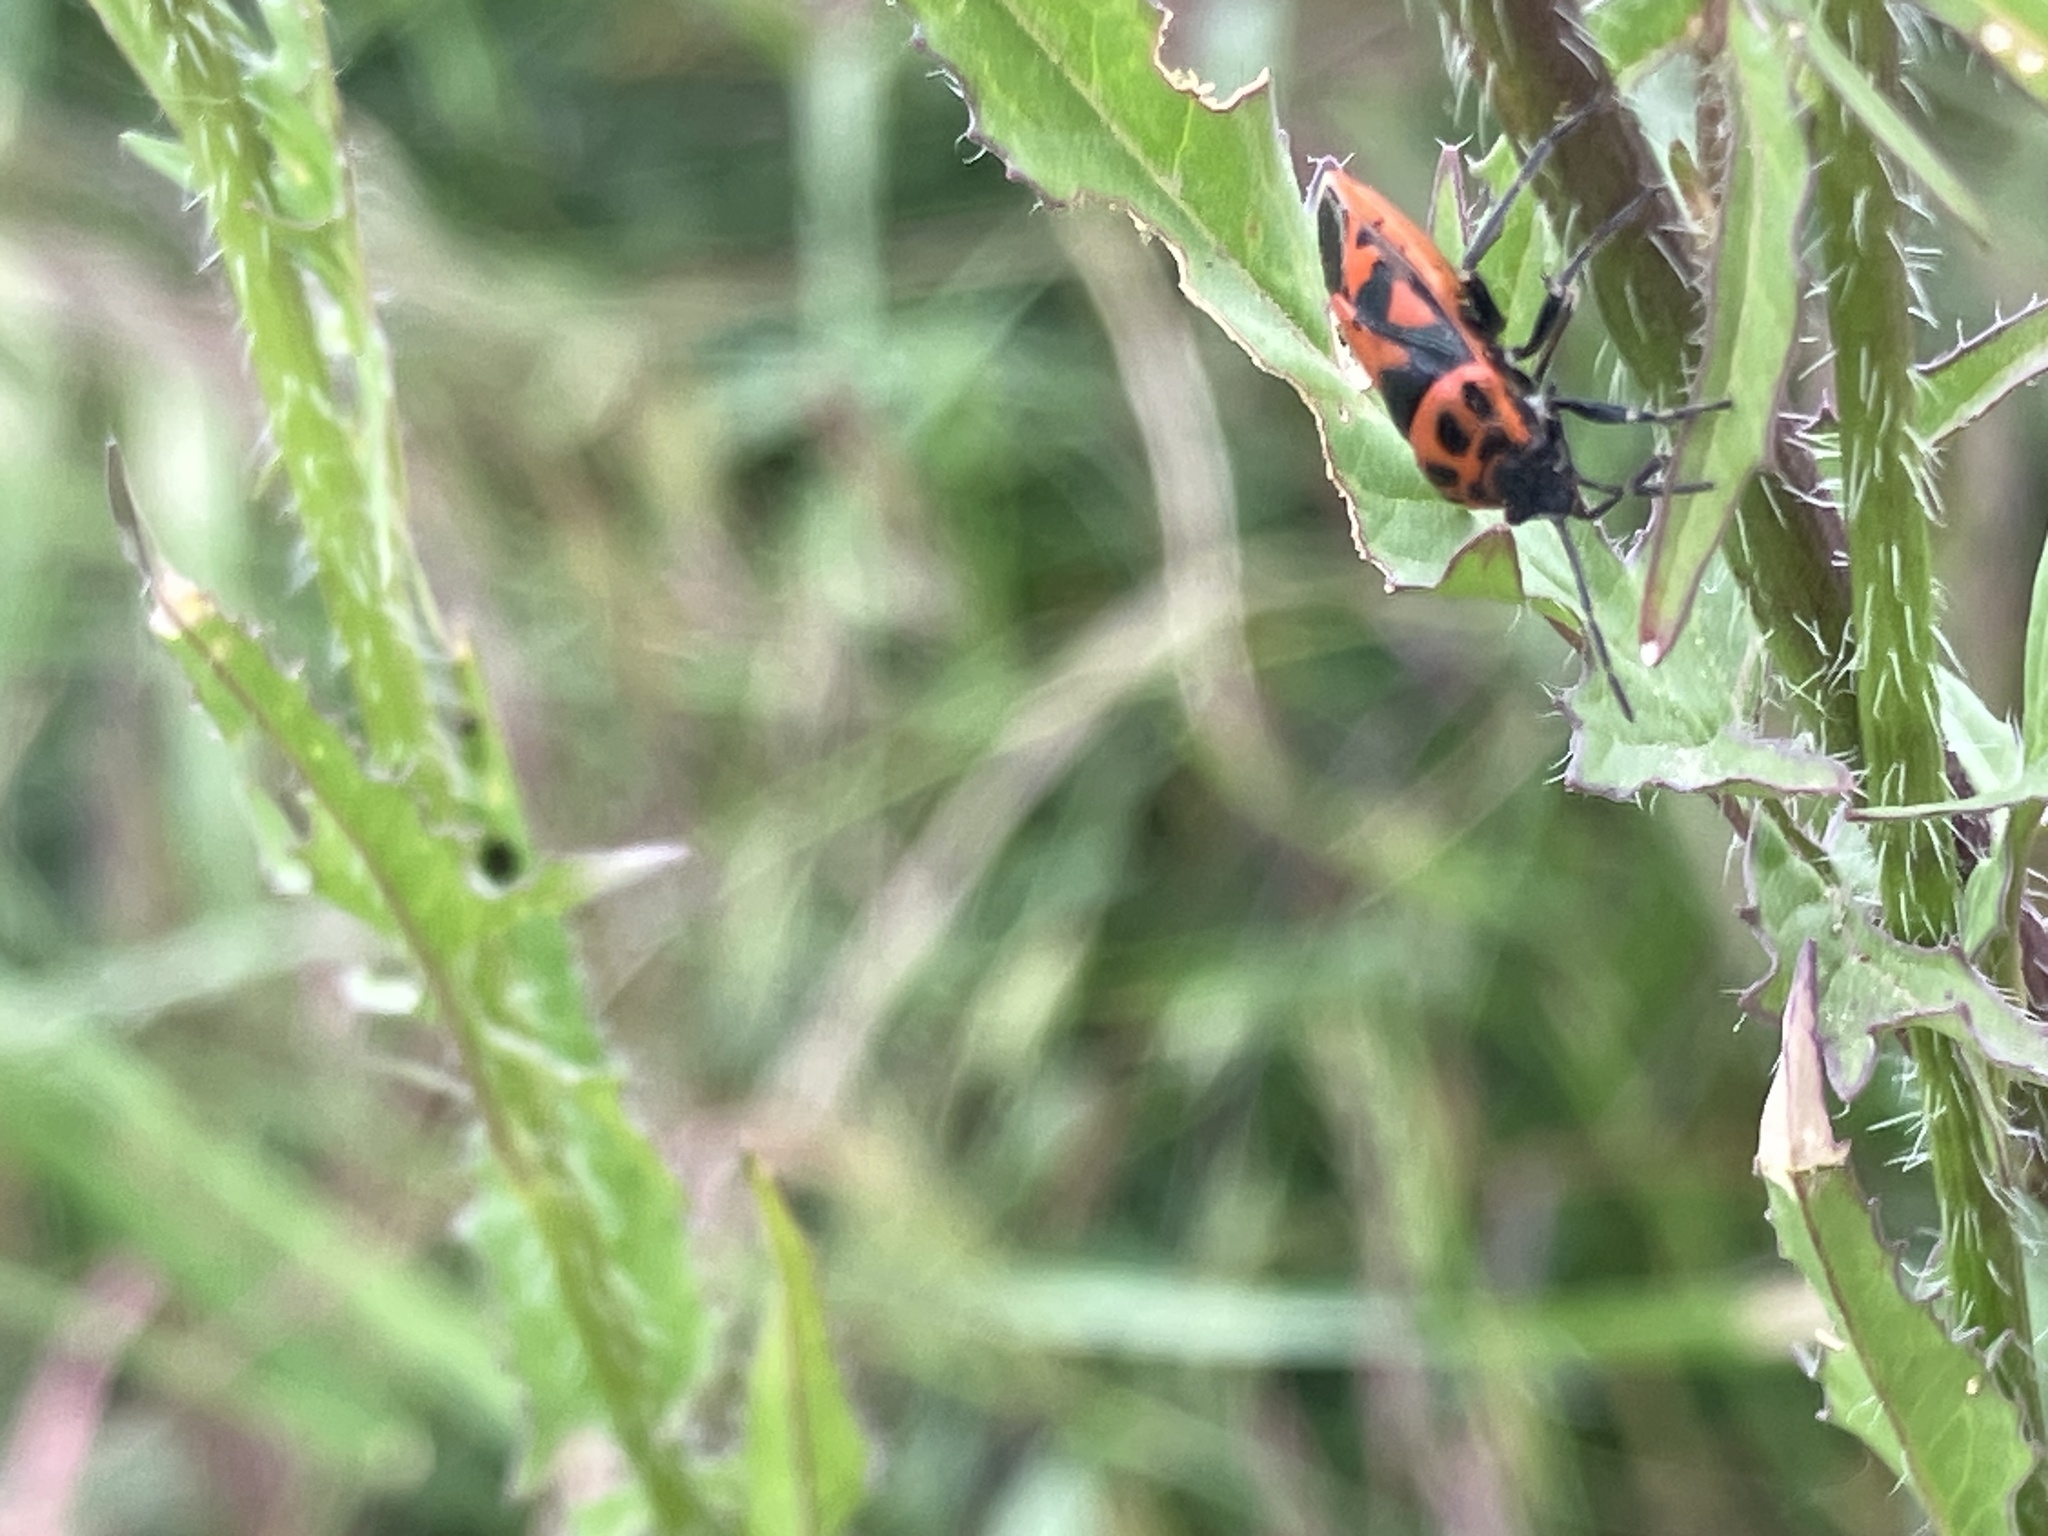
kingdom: Animalia
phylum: Arthropoda
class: Insecta
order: Hemiptera
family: Pentatomidae
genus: Eurydema
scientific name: Eurydema ornata
